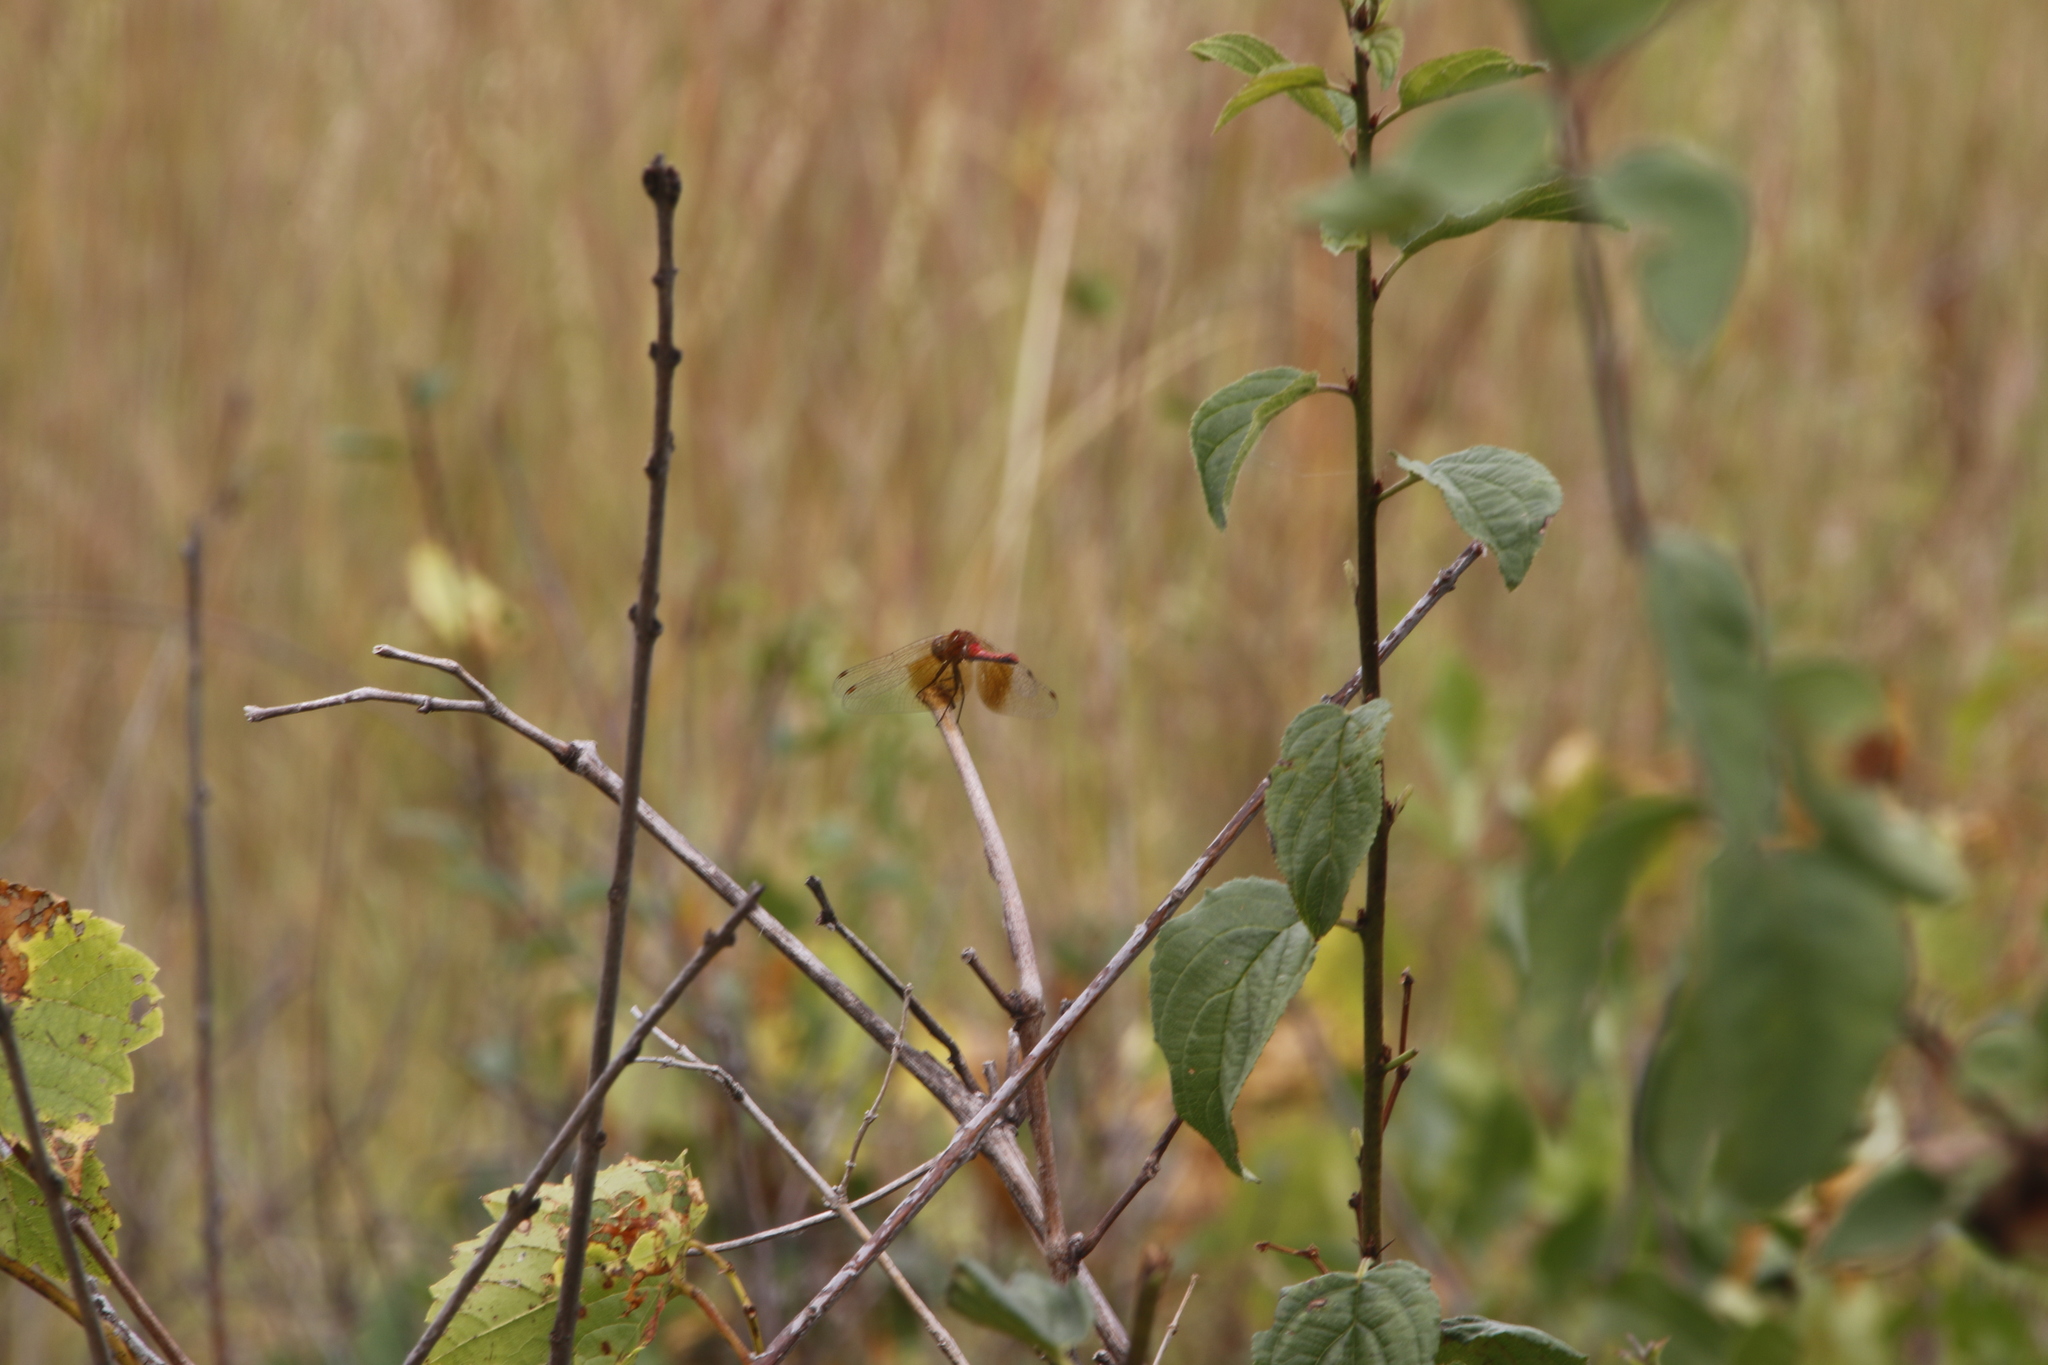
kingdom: Animalia
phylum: Arthropoda
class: Insecta
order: Odonata
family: Libellulidae
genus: Sympetrum
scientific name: Sympetrum semicinctum
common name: Band-winged meadowhawk
